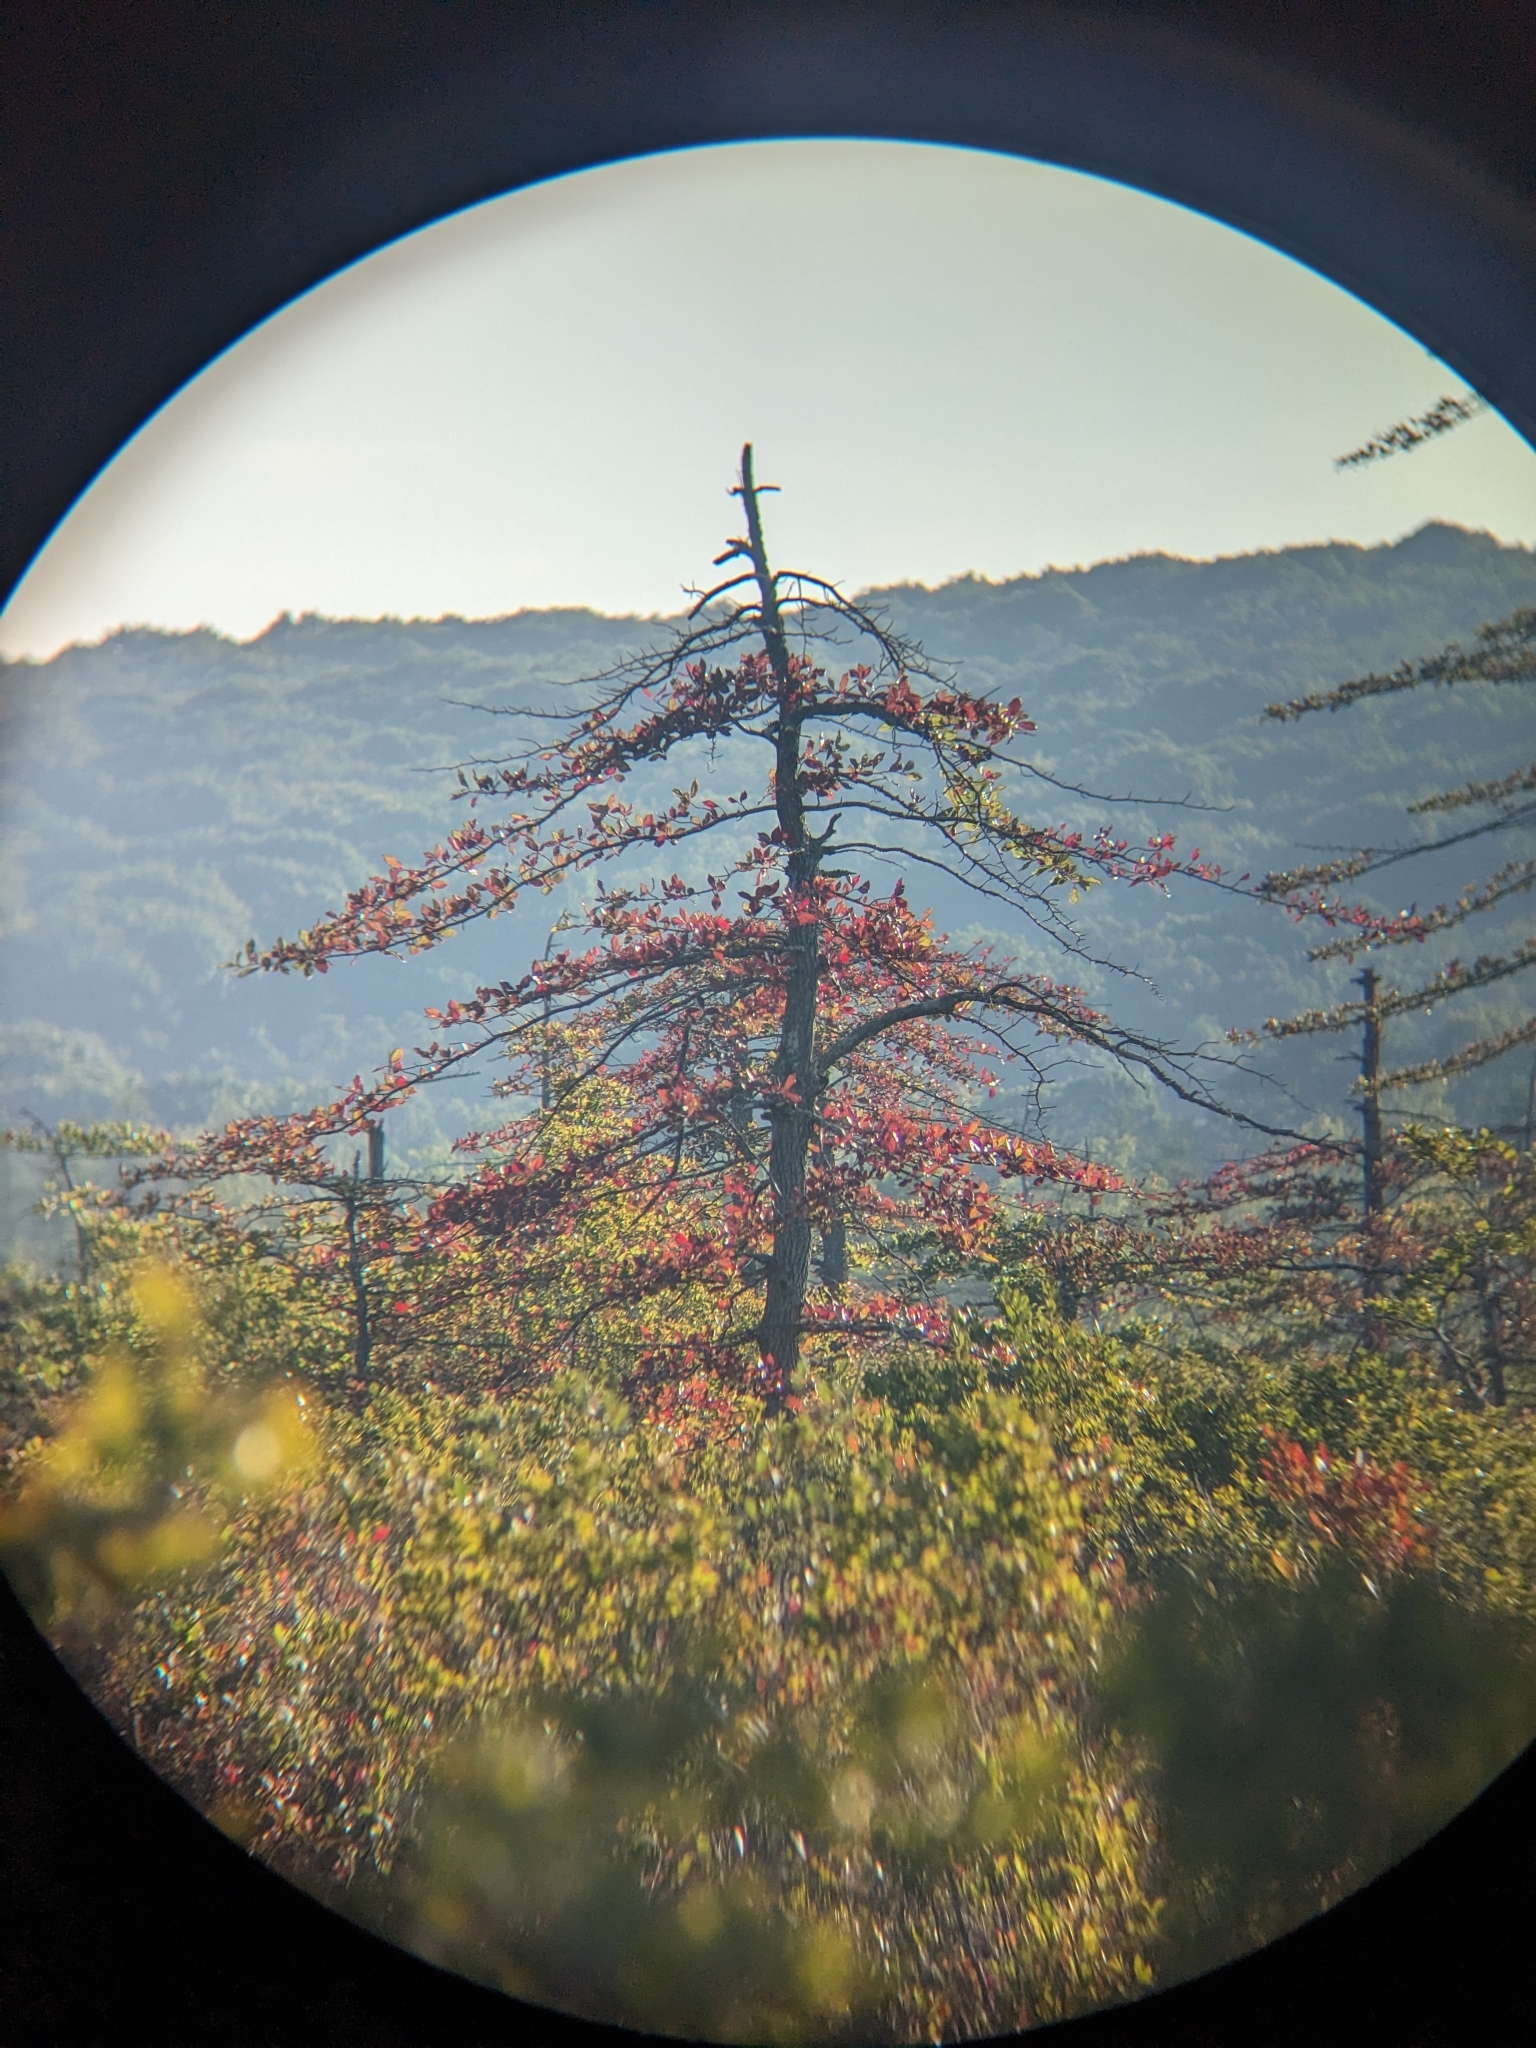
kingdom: Plantae
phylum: Tracheophyta
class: Magnoliopsida
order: Cornales
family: Nyssaceae
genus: Nyssa
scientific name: Nyssa sylvatica
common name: Black tupelo
